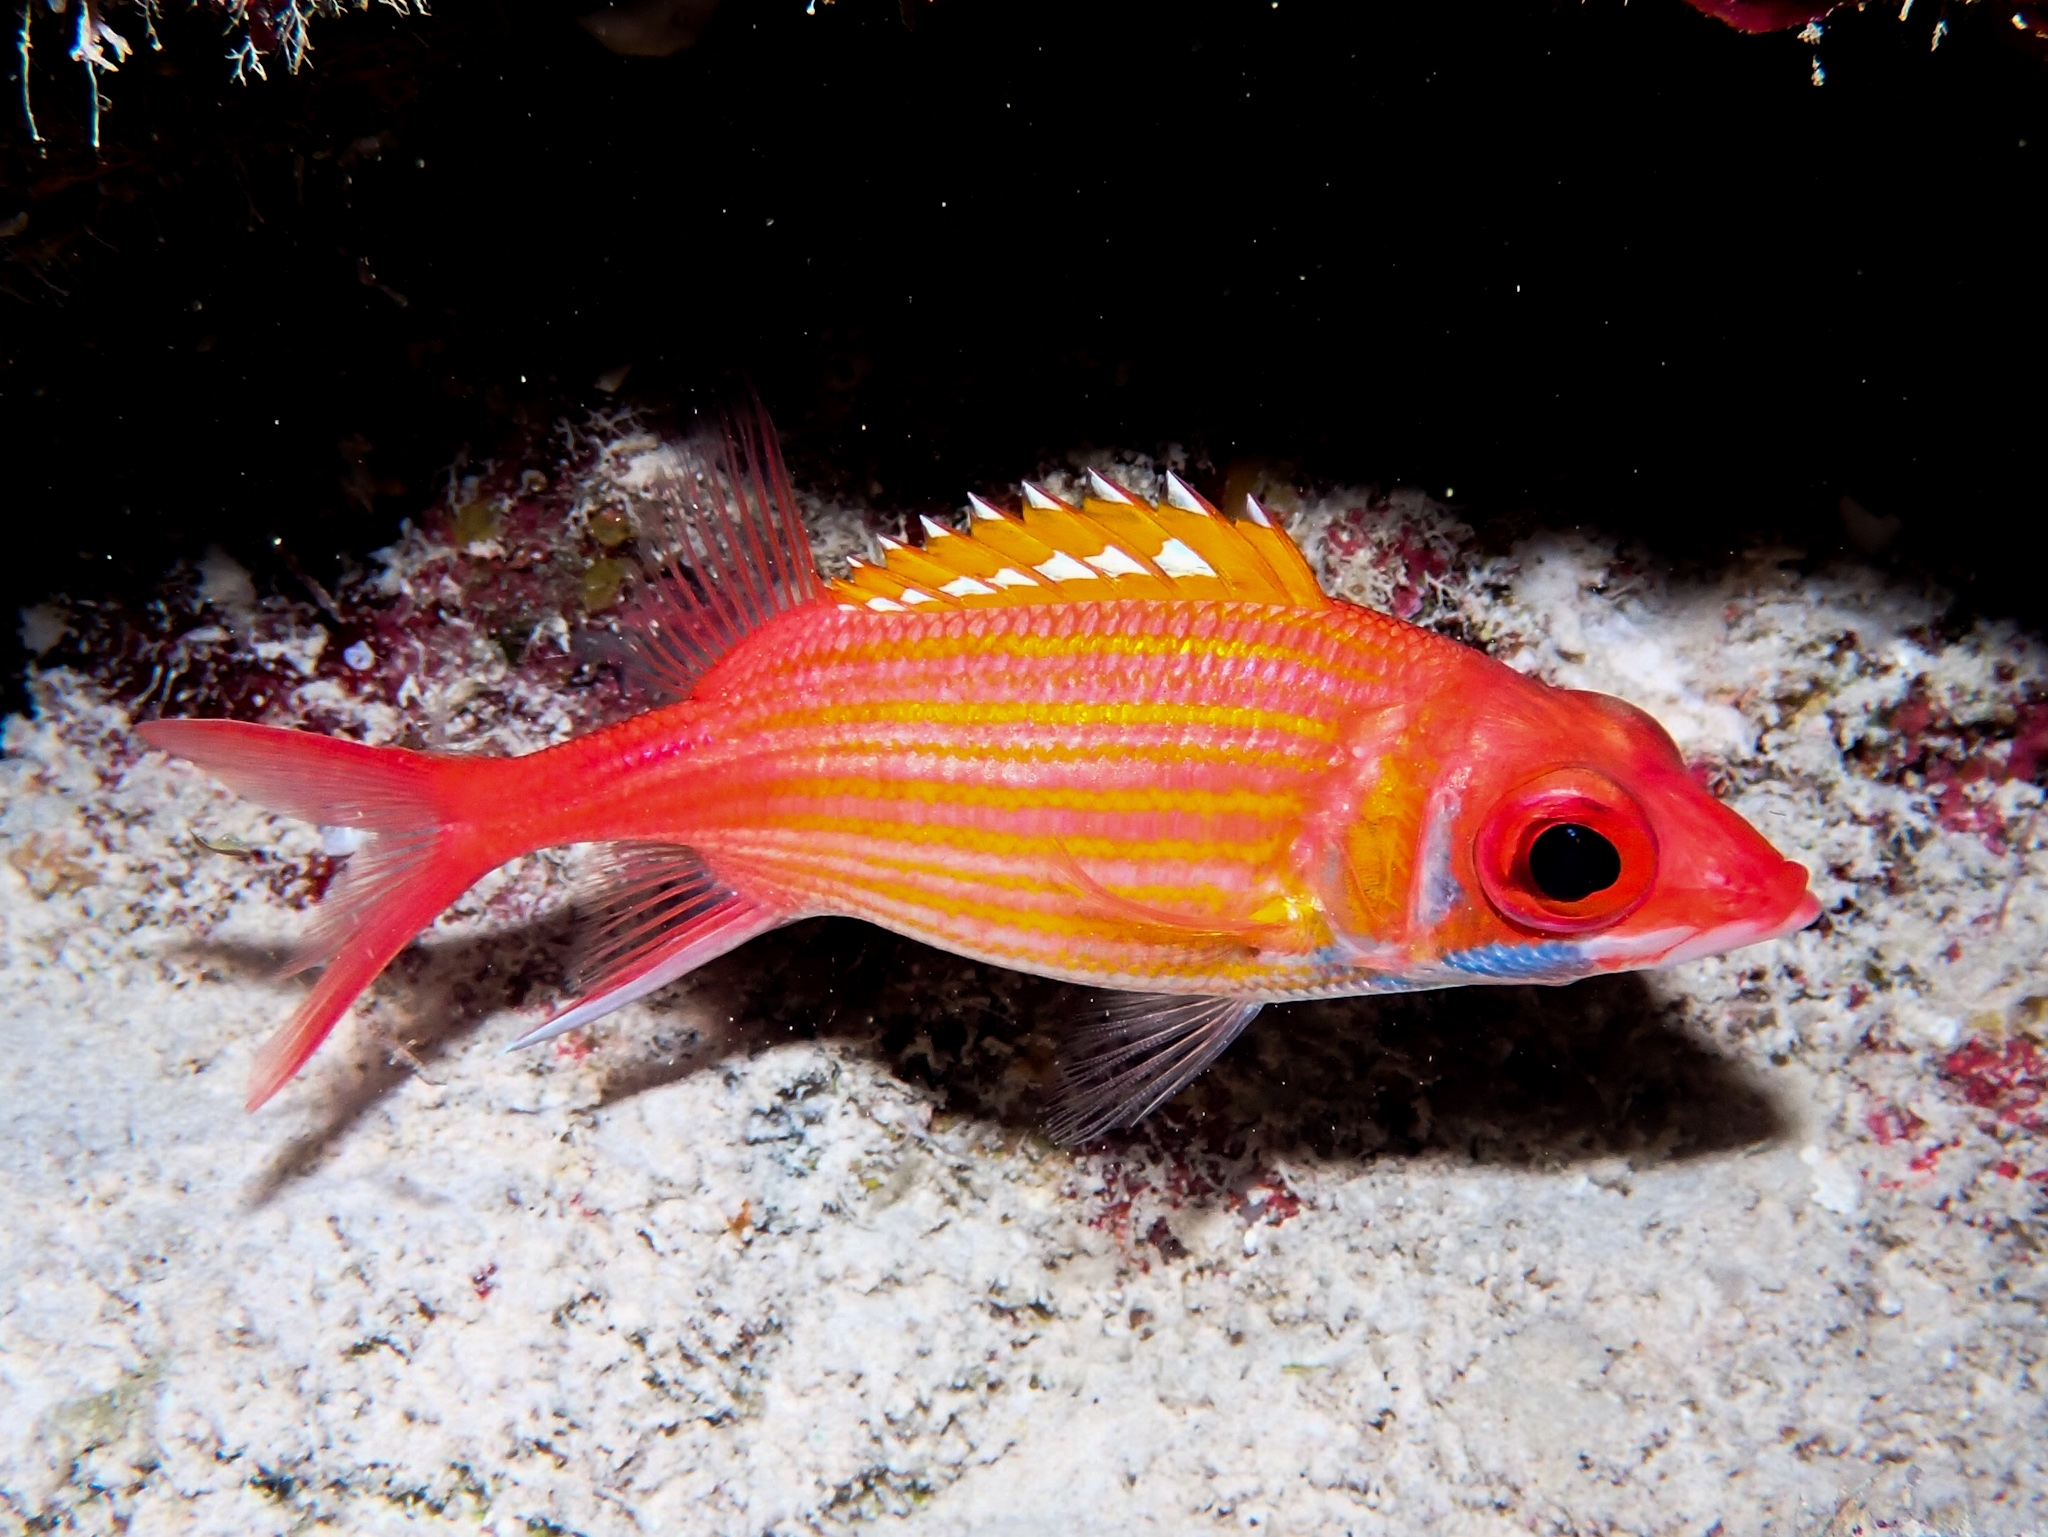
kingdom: Animalia
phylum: Chordata
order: Beryciformes
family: Holocentridae
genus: Neoniphon
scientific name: Neoniphon marianus
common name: Longjaw squirrelfish
